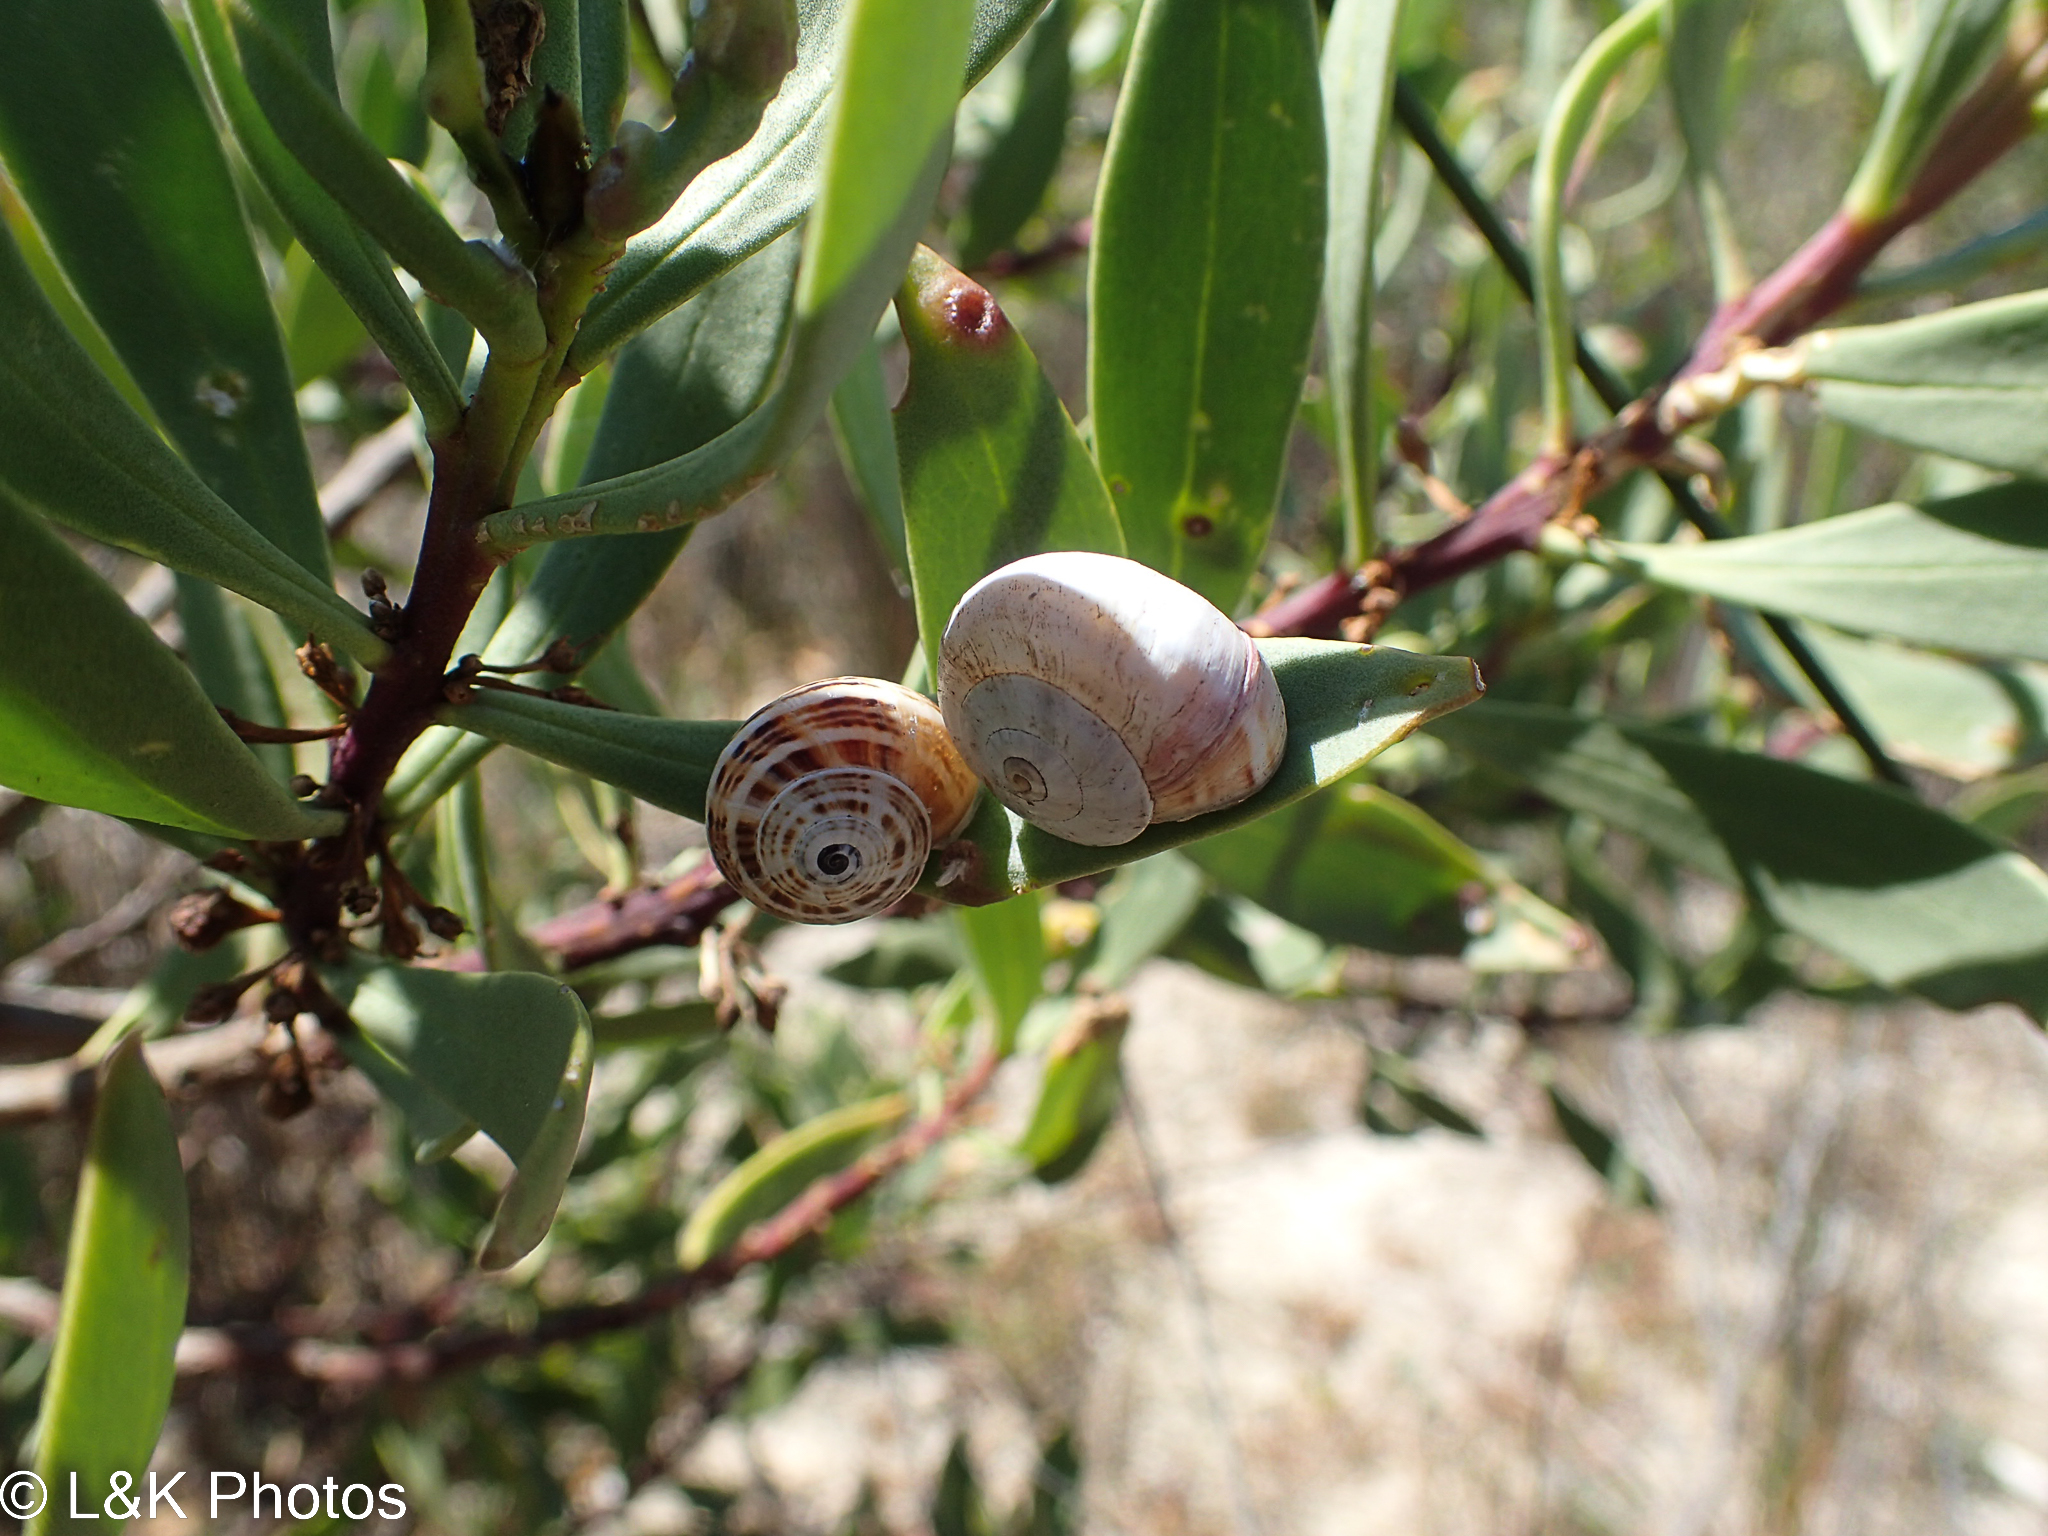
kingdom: Animalia
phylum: Mollusca
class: Gastropoda
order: Stylommatophora
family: Helicidae
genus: Theba
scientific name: Theba pisana
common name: White snail
